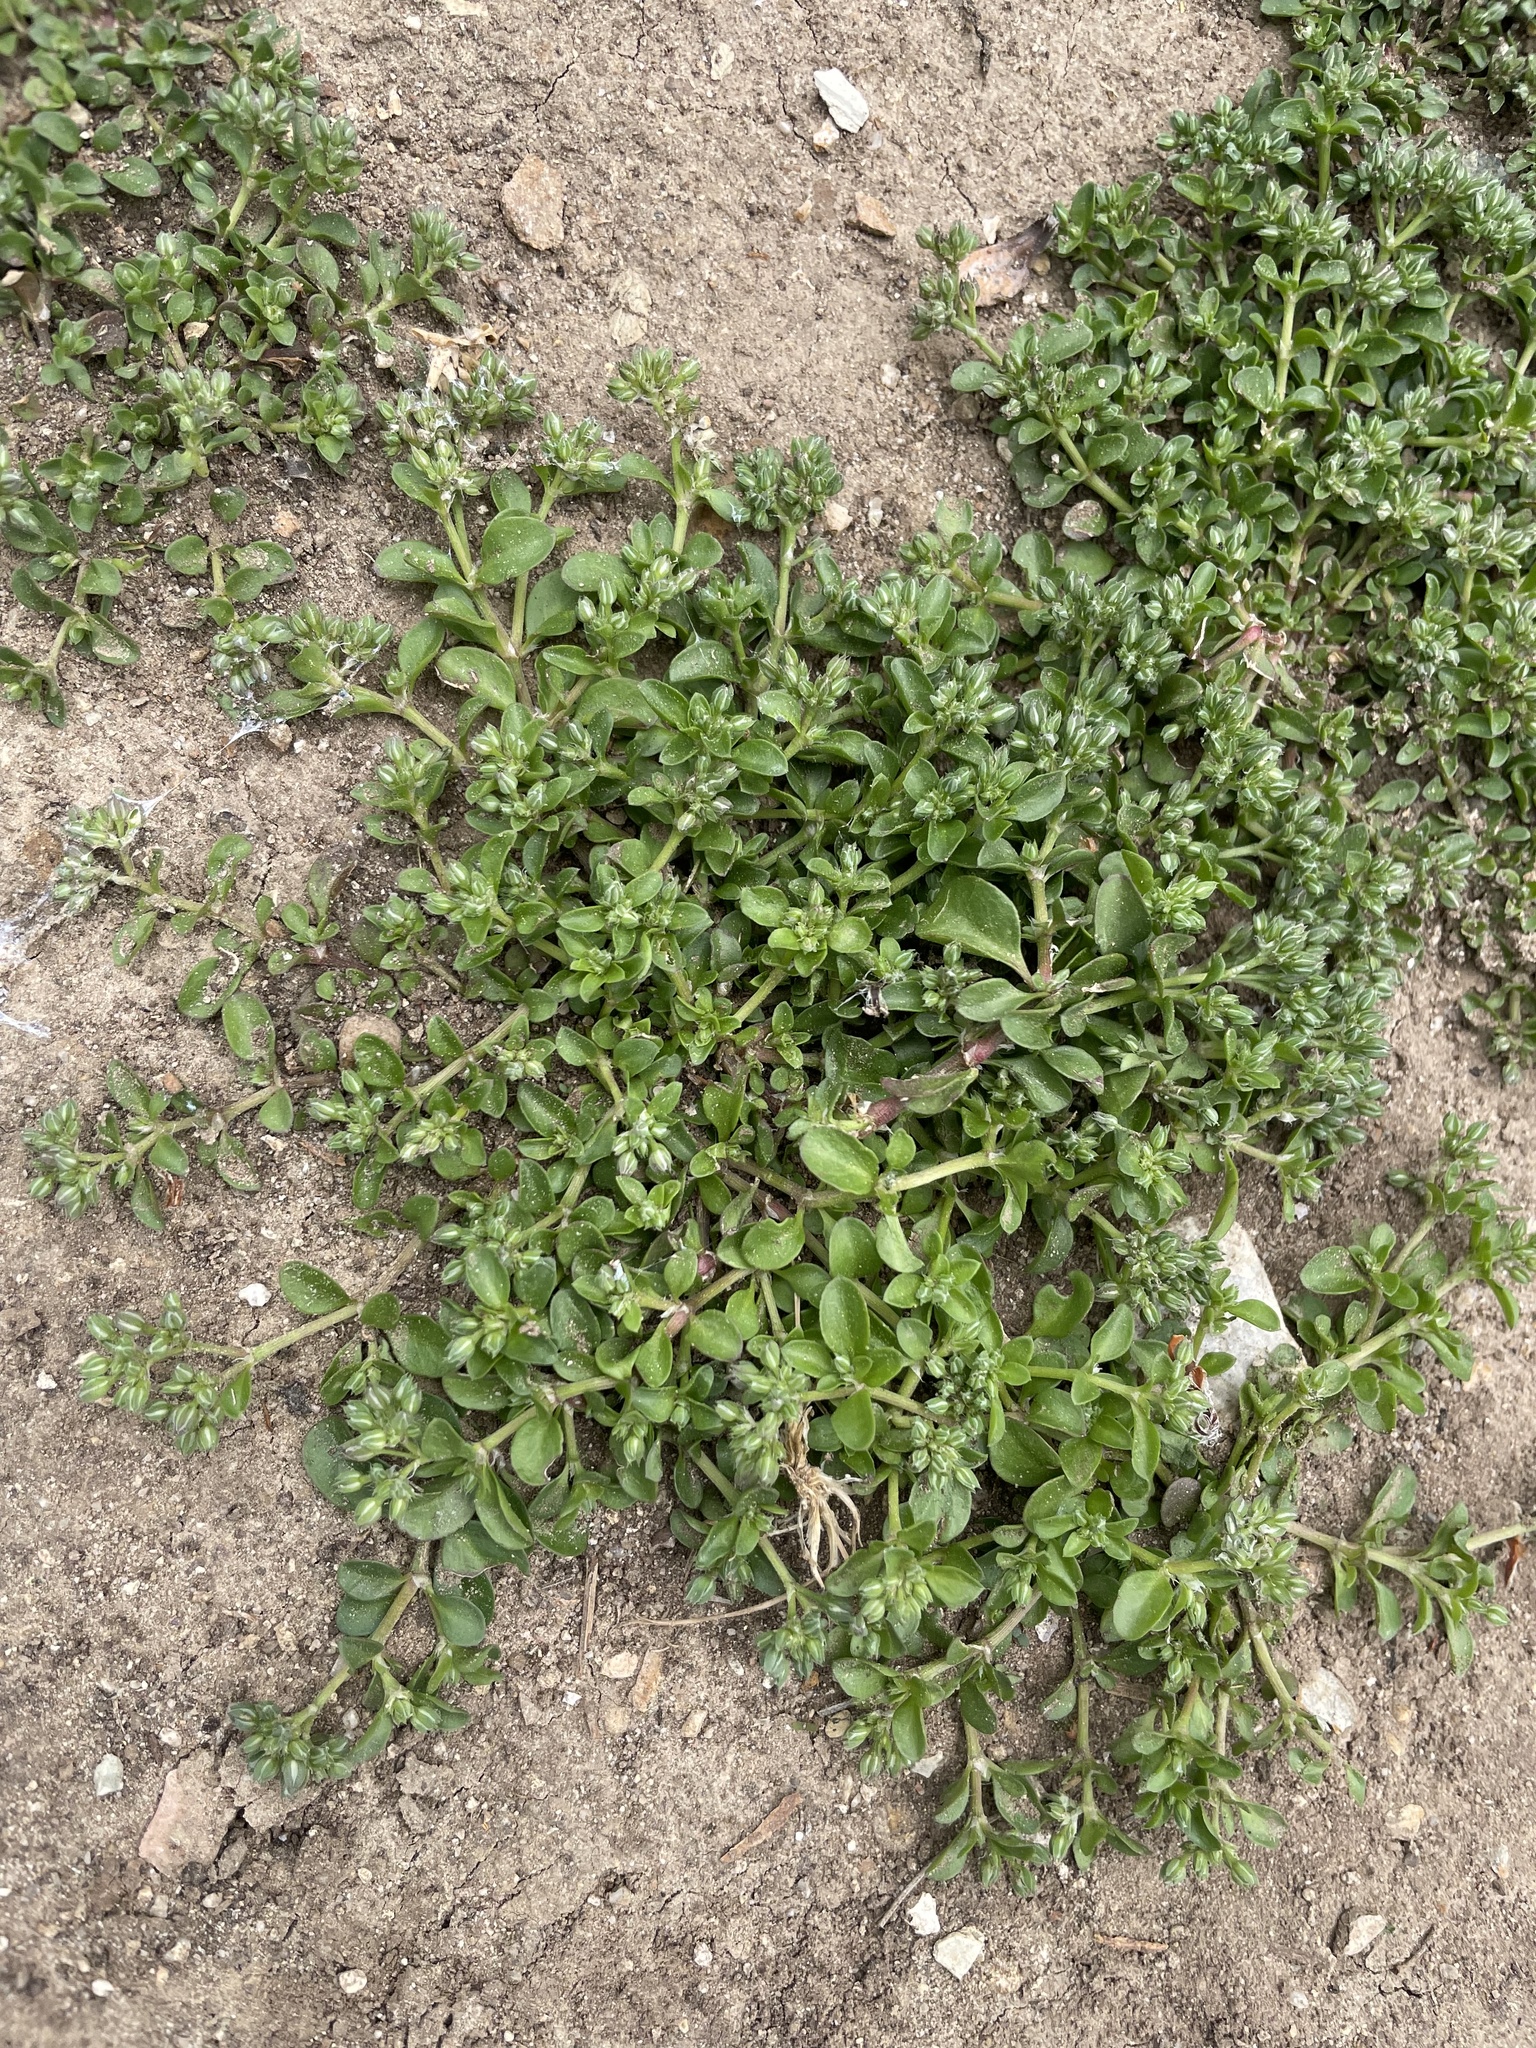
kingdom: Plantae
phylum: Tracheophyta
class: Magnoliopsida
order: Caryophyllales
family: Caryophyllaceae
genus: Polycarpon
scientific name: Polycarpon tetraphyllum
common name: Four-leaved all-seed
